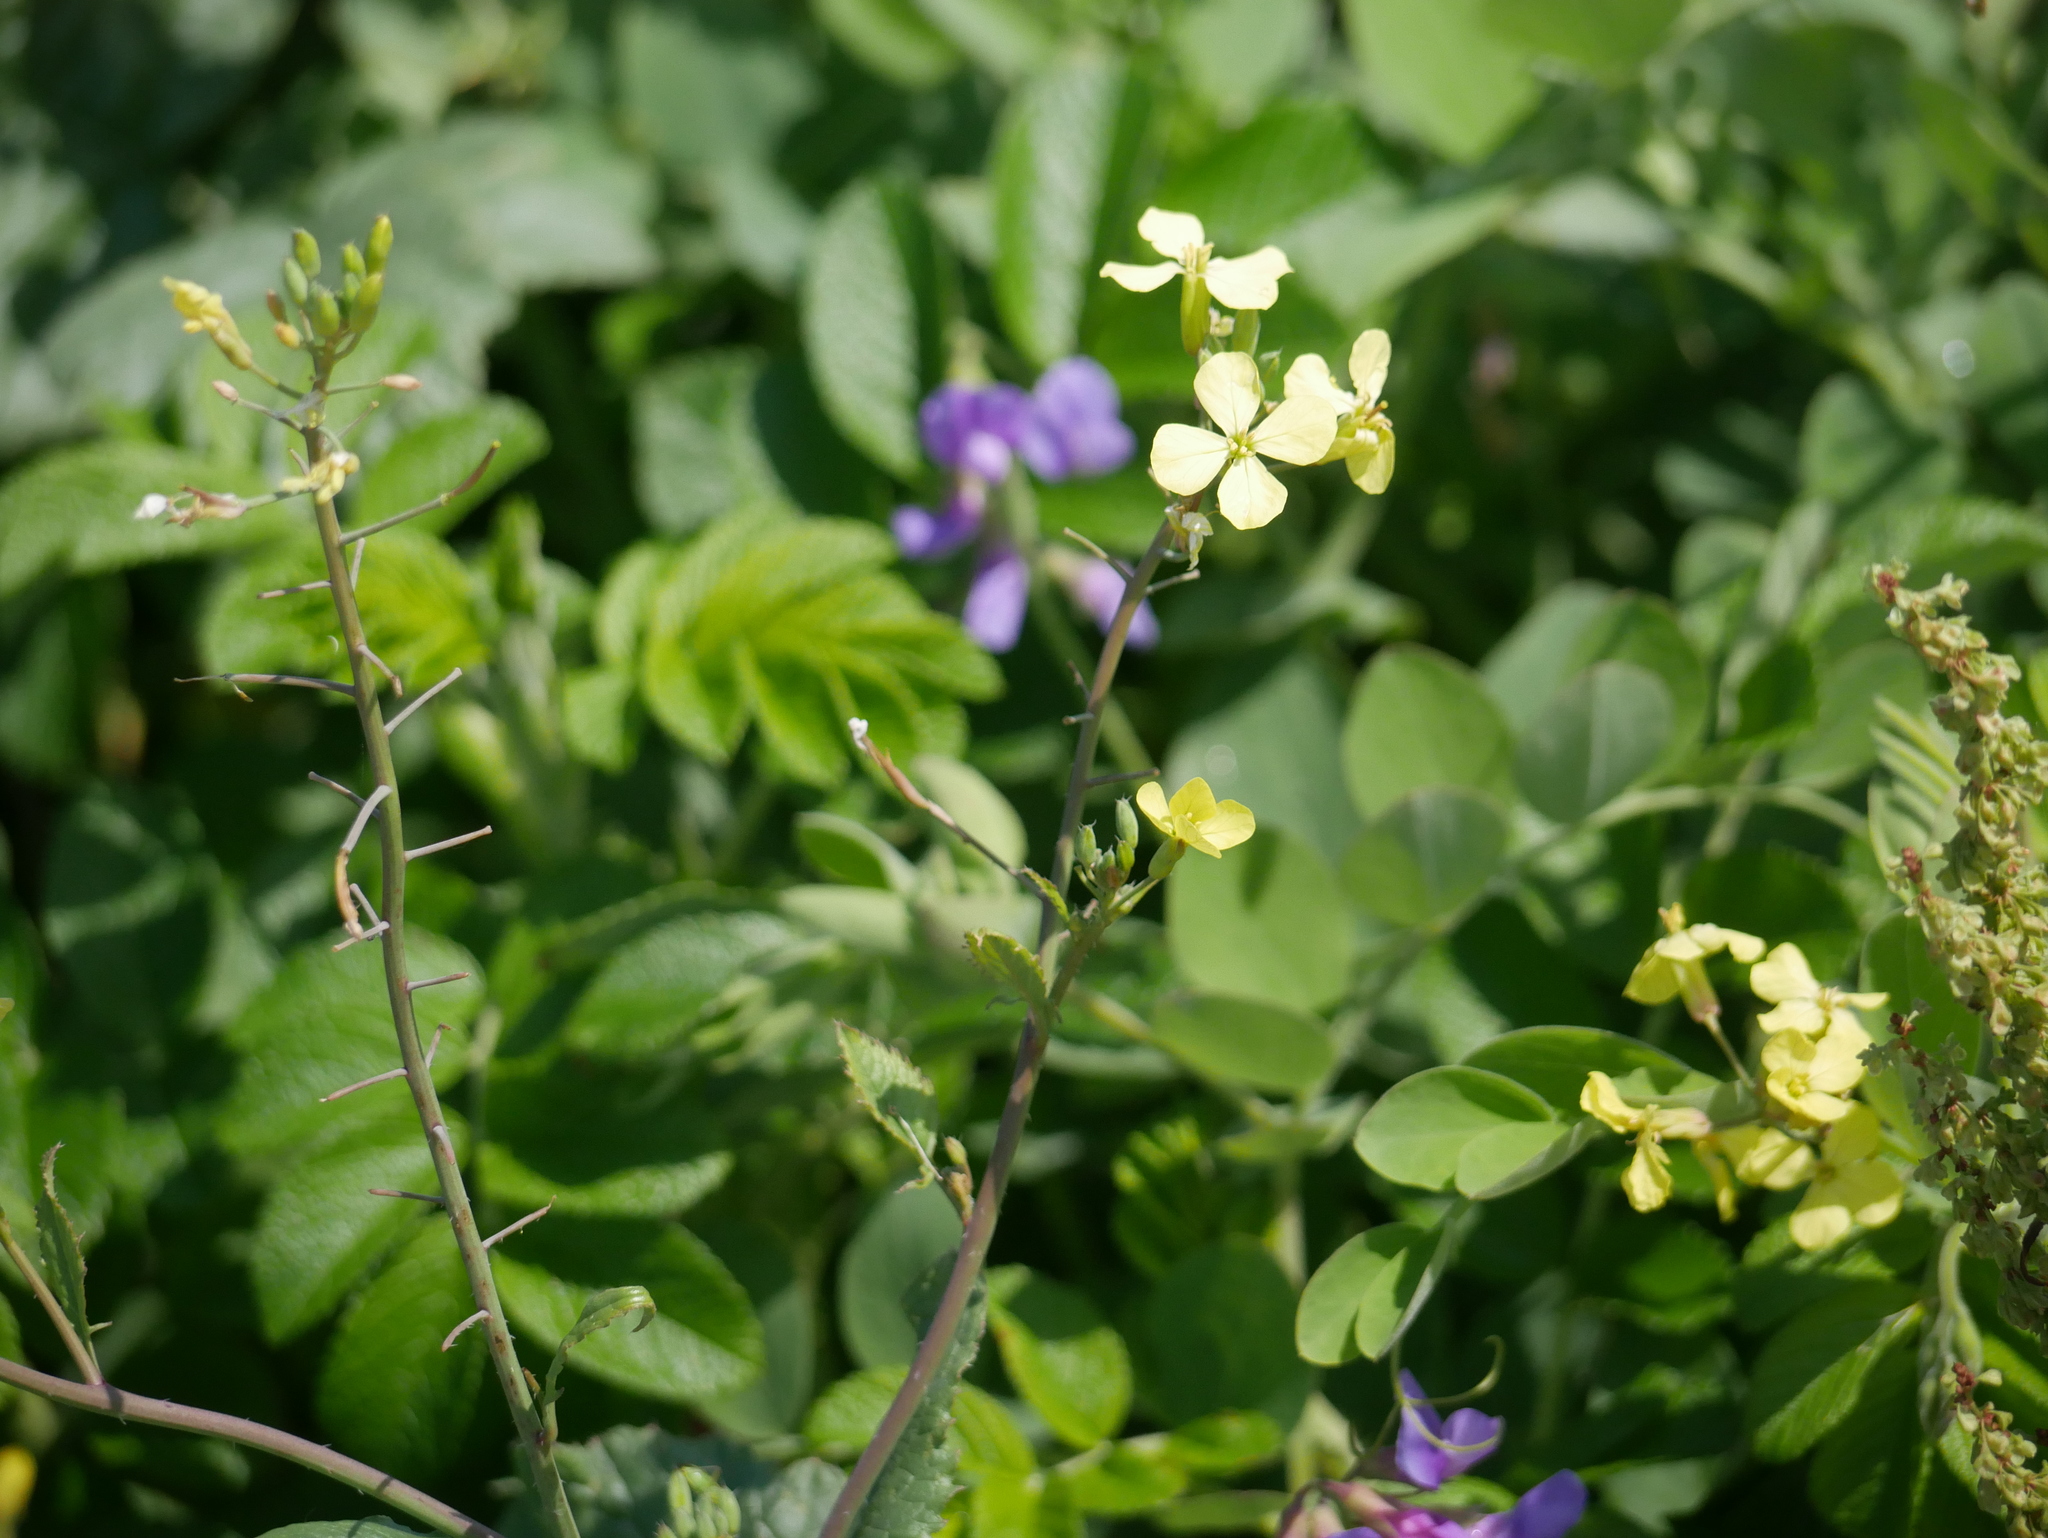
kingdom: Plantae
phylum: Tracheophyta
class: Magnoliopsida
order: Brassicales
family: Brassicaceae
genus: Raphanus
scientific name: Raphanus raphanistrum
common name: Wild radish
